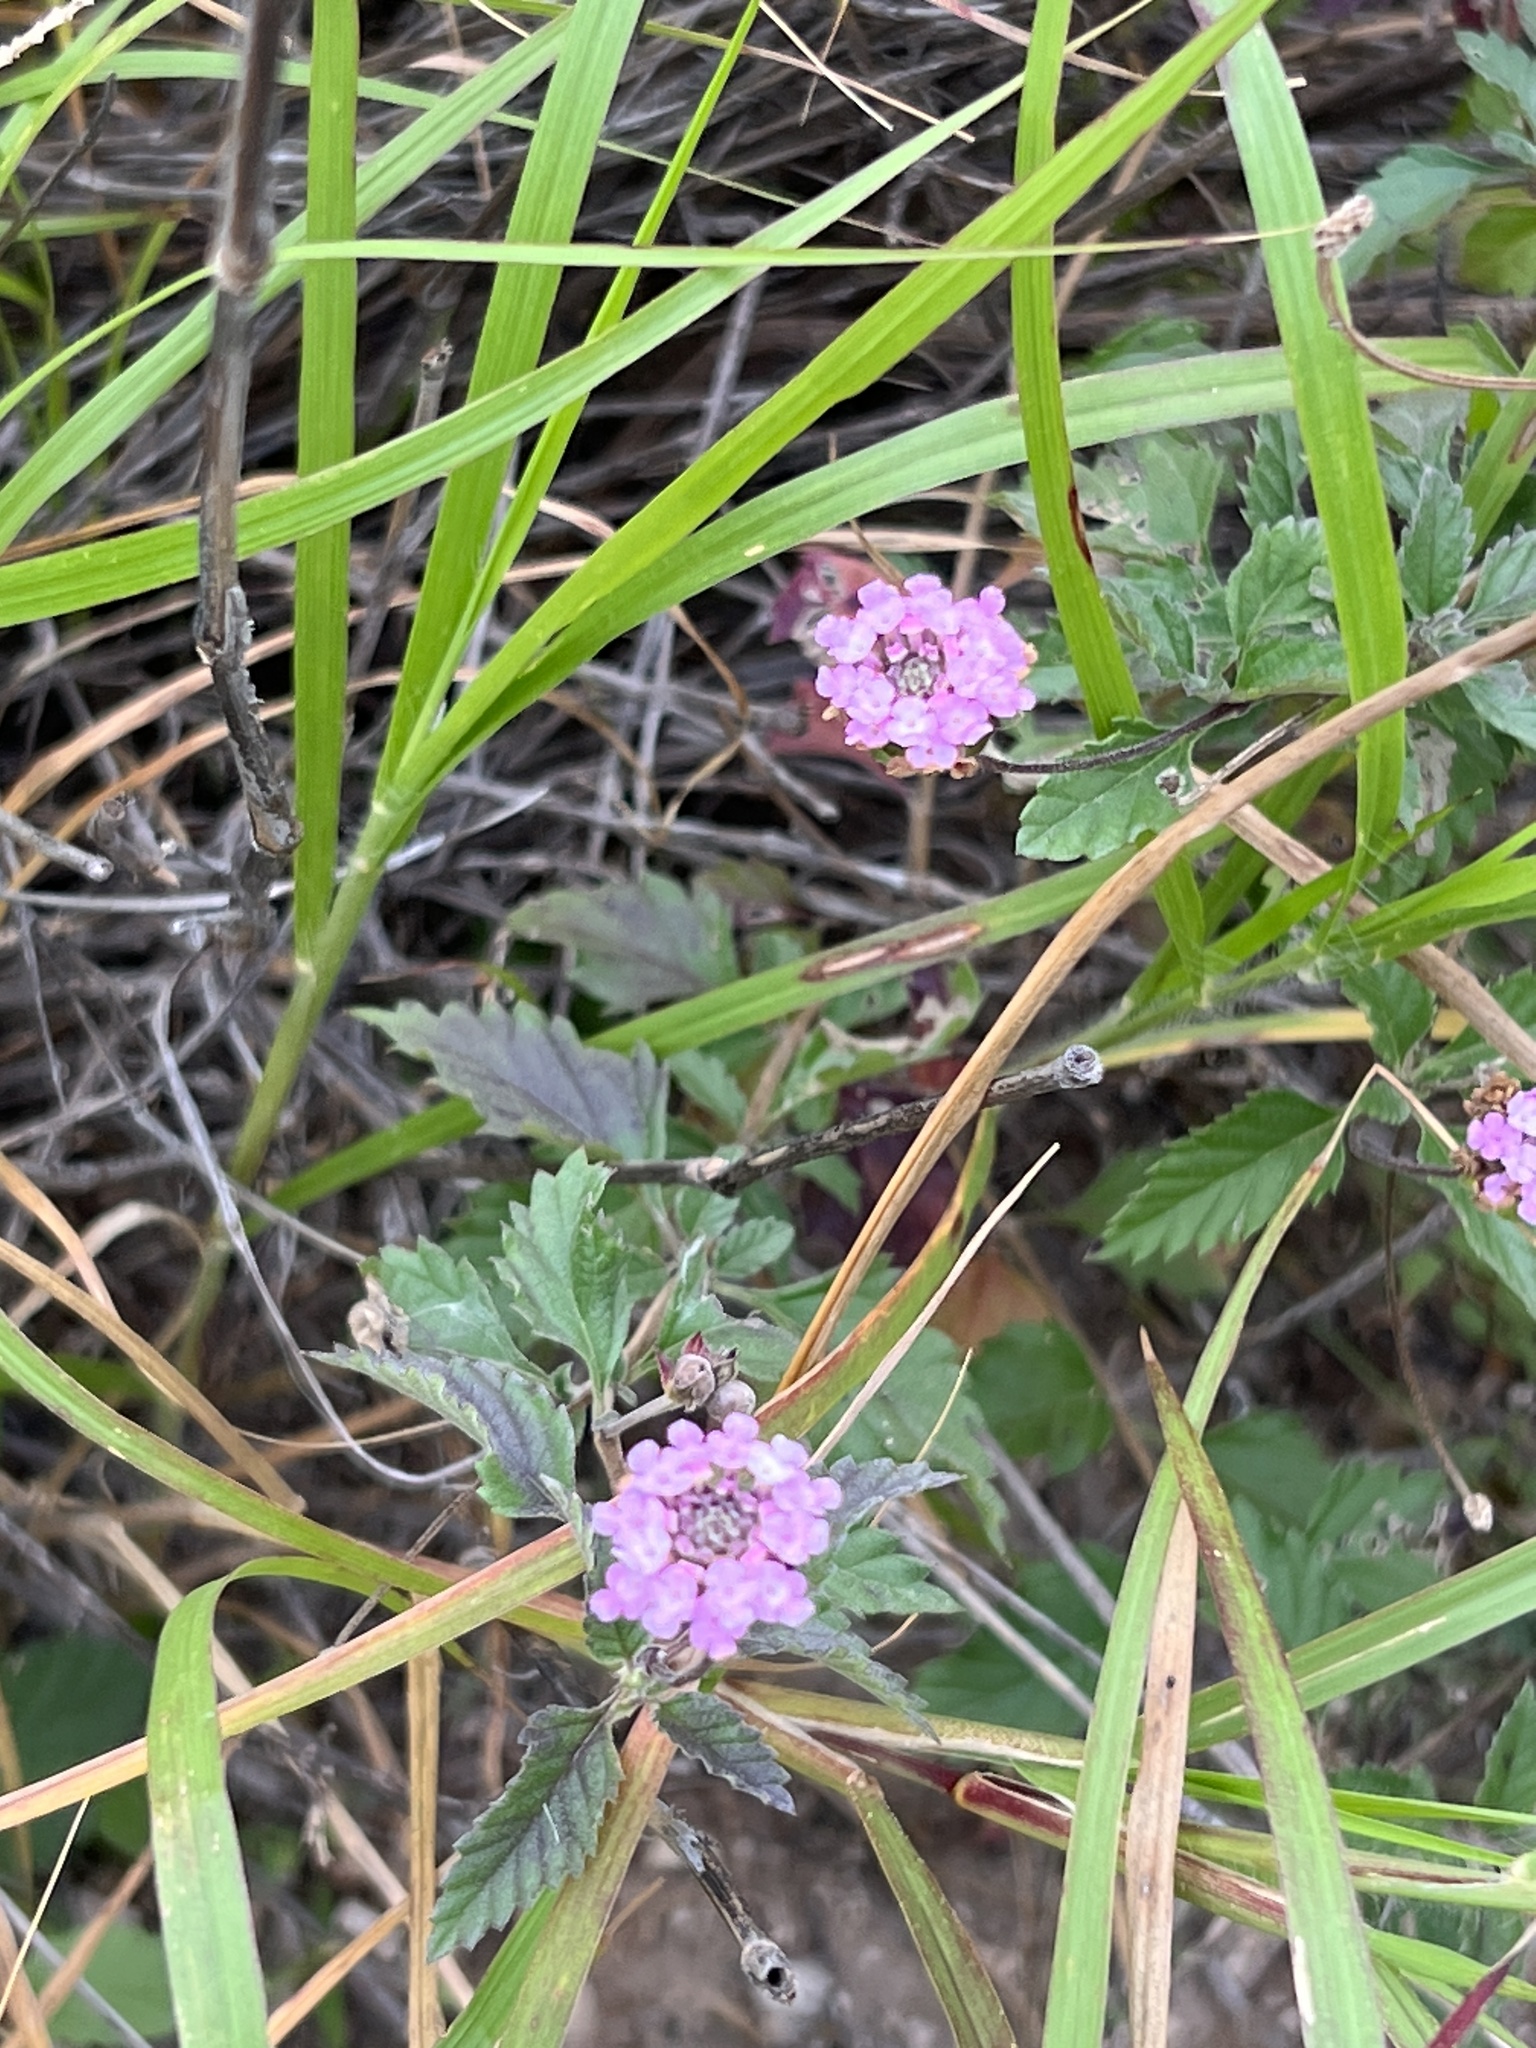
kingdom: Plantae
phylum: Tracheophyta
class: Magnoliopsida
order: Lamiales
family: Verbenaceae
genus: Lantana
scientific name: Lantana achyranthifolia
